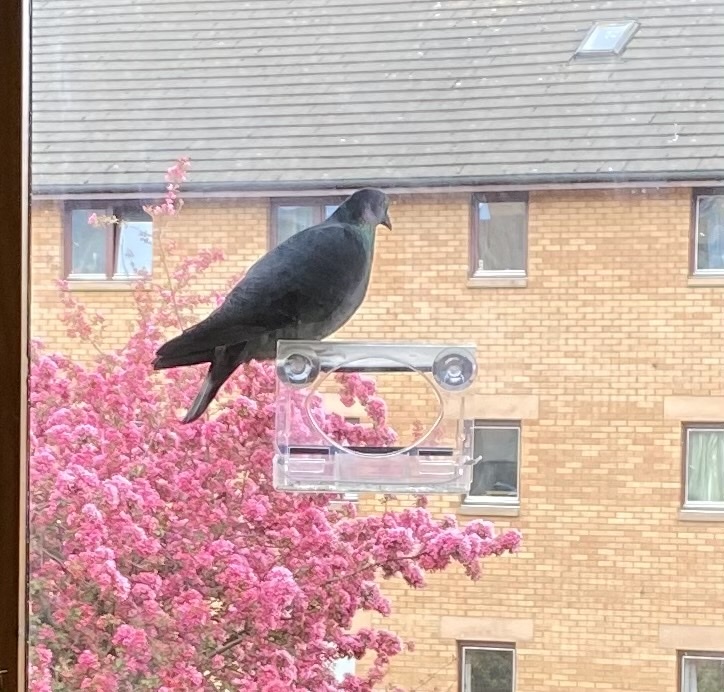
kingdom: Animalia
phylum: Chordata
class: Aves
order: Columbiformes
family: Columbidae
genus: Columba
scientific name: Columba livia
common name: Rock pigeon
